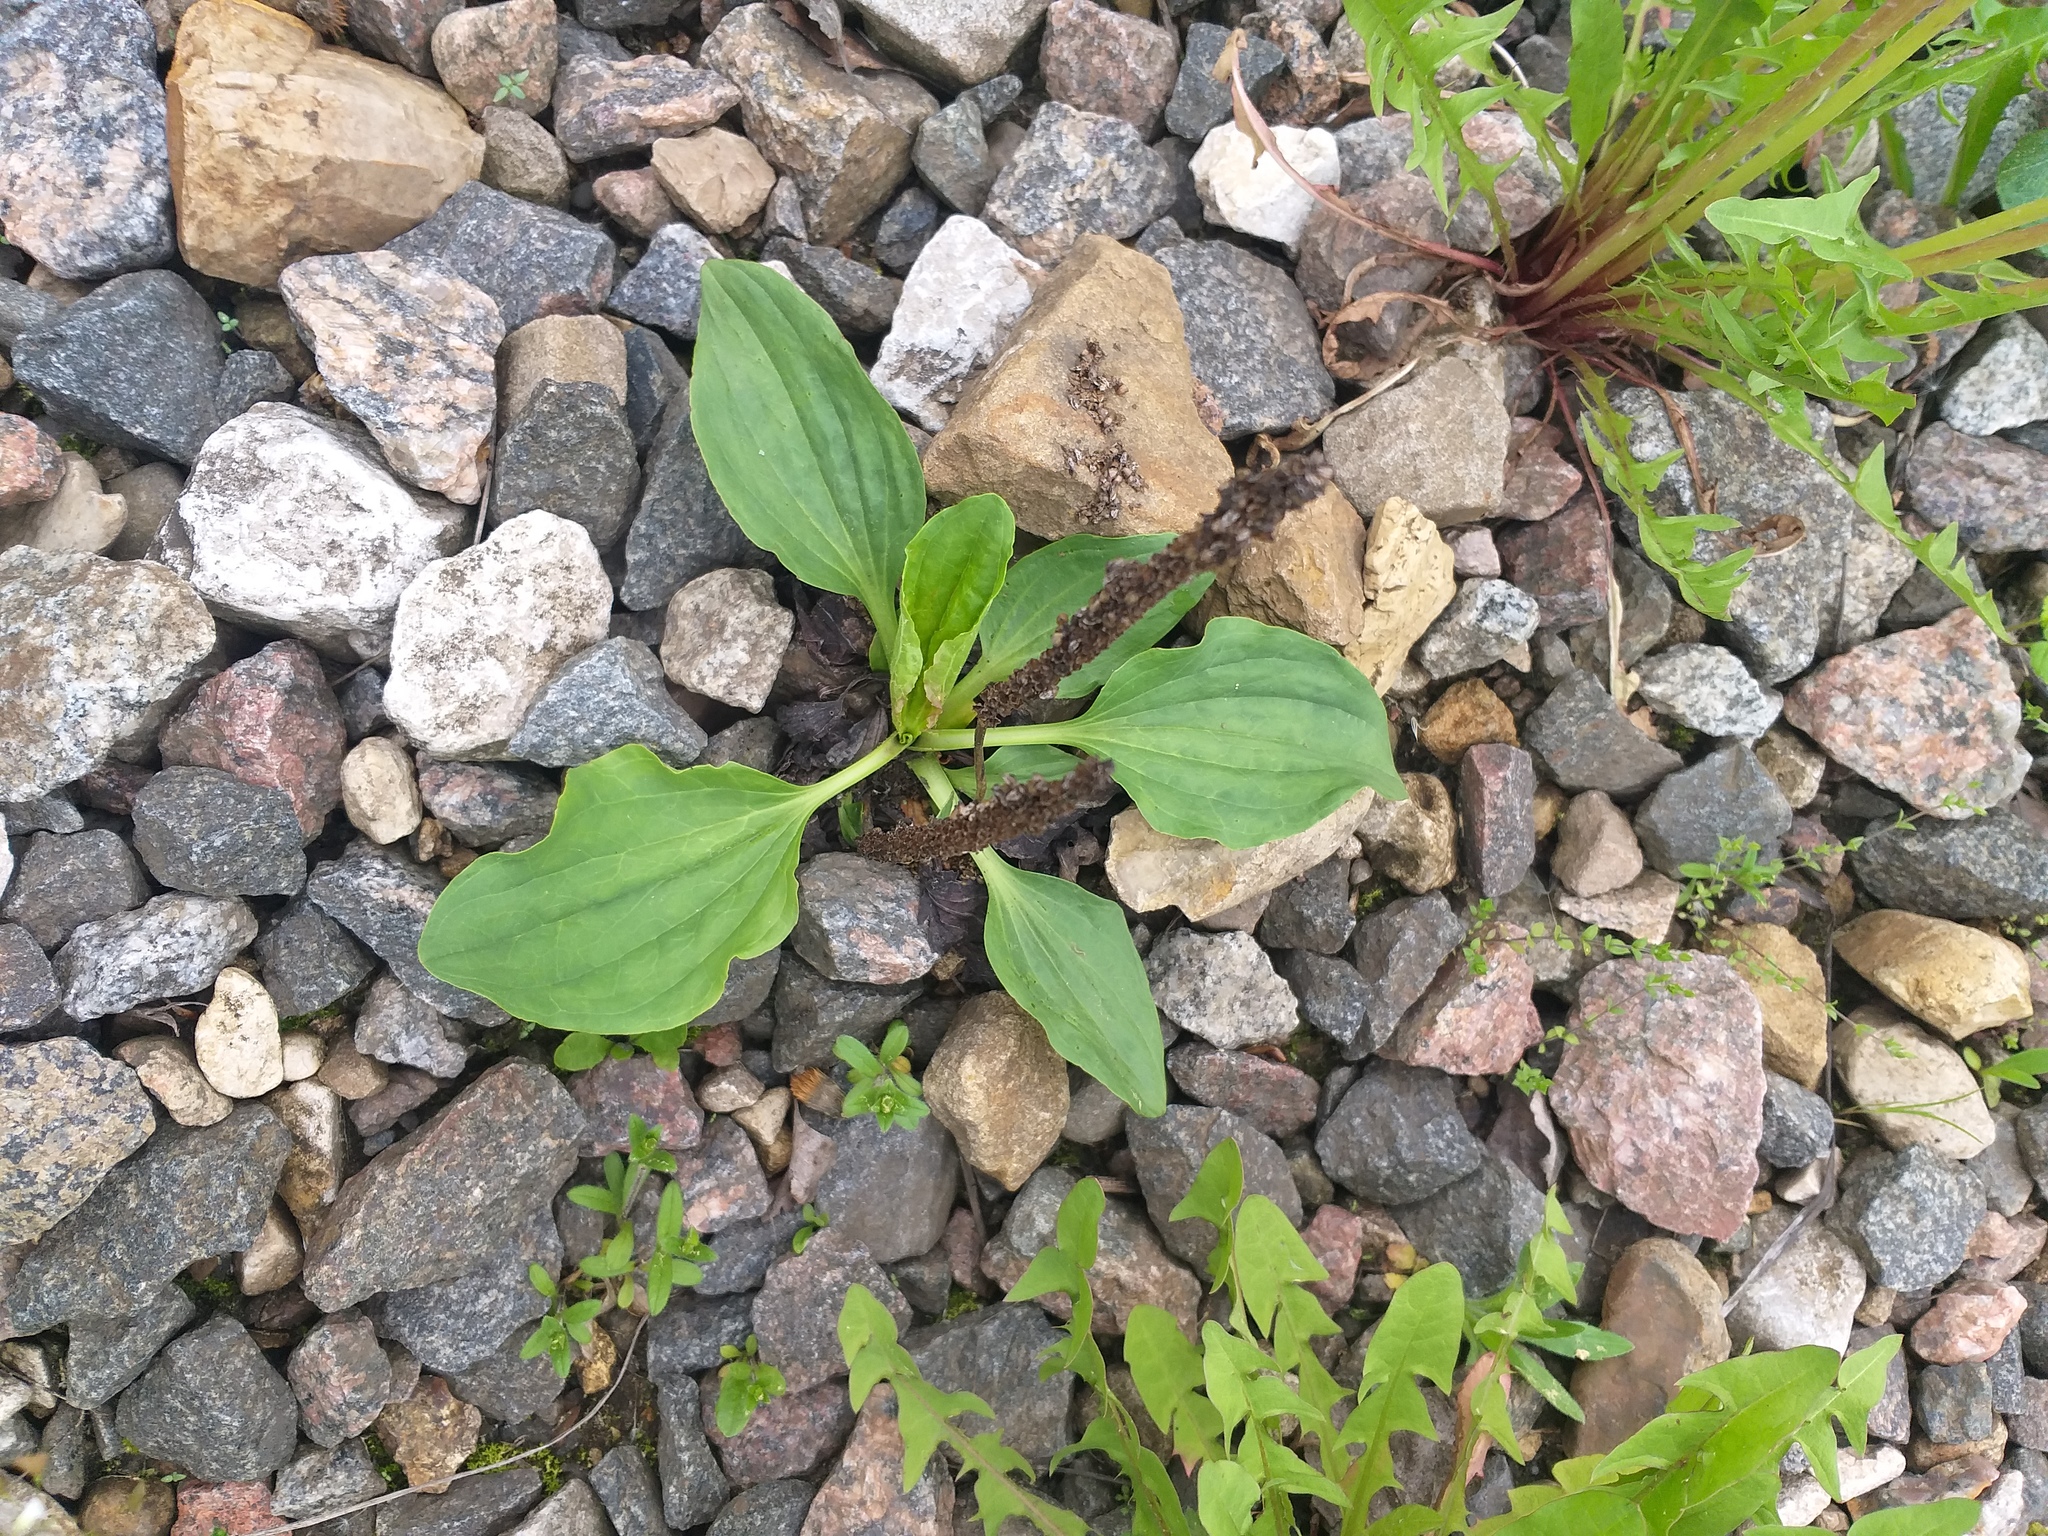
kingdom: Plantae
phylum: Tracheophyta
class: Magnoliopsida
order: Lamiales
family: Plantaginaceae
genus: Plantago
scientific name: Plantago major
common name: Common plantain
